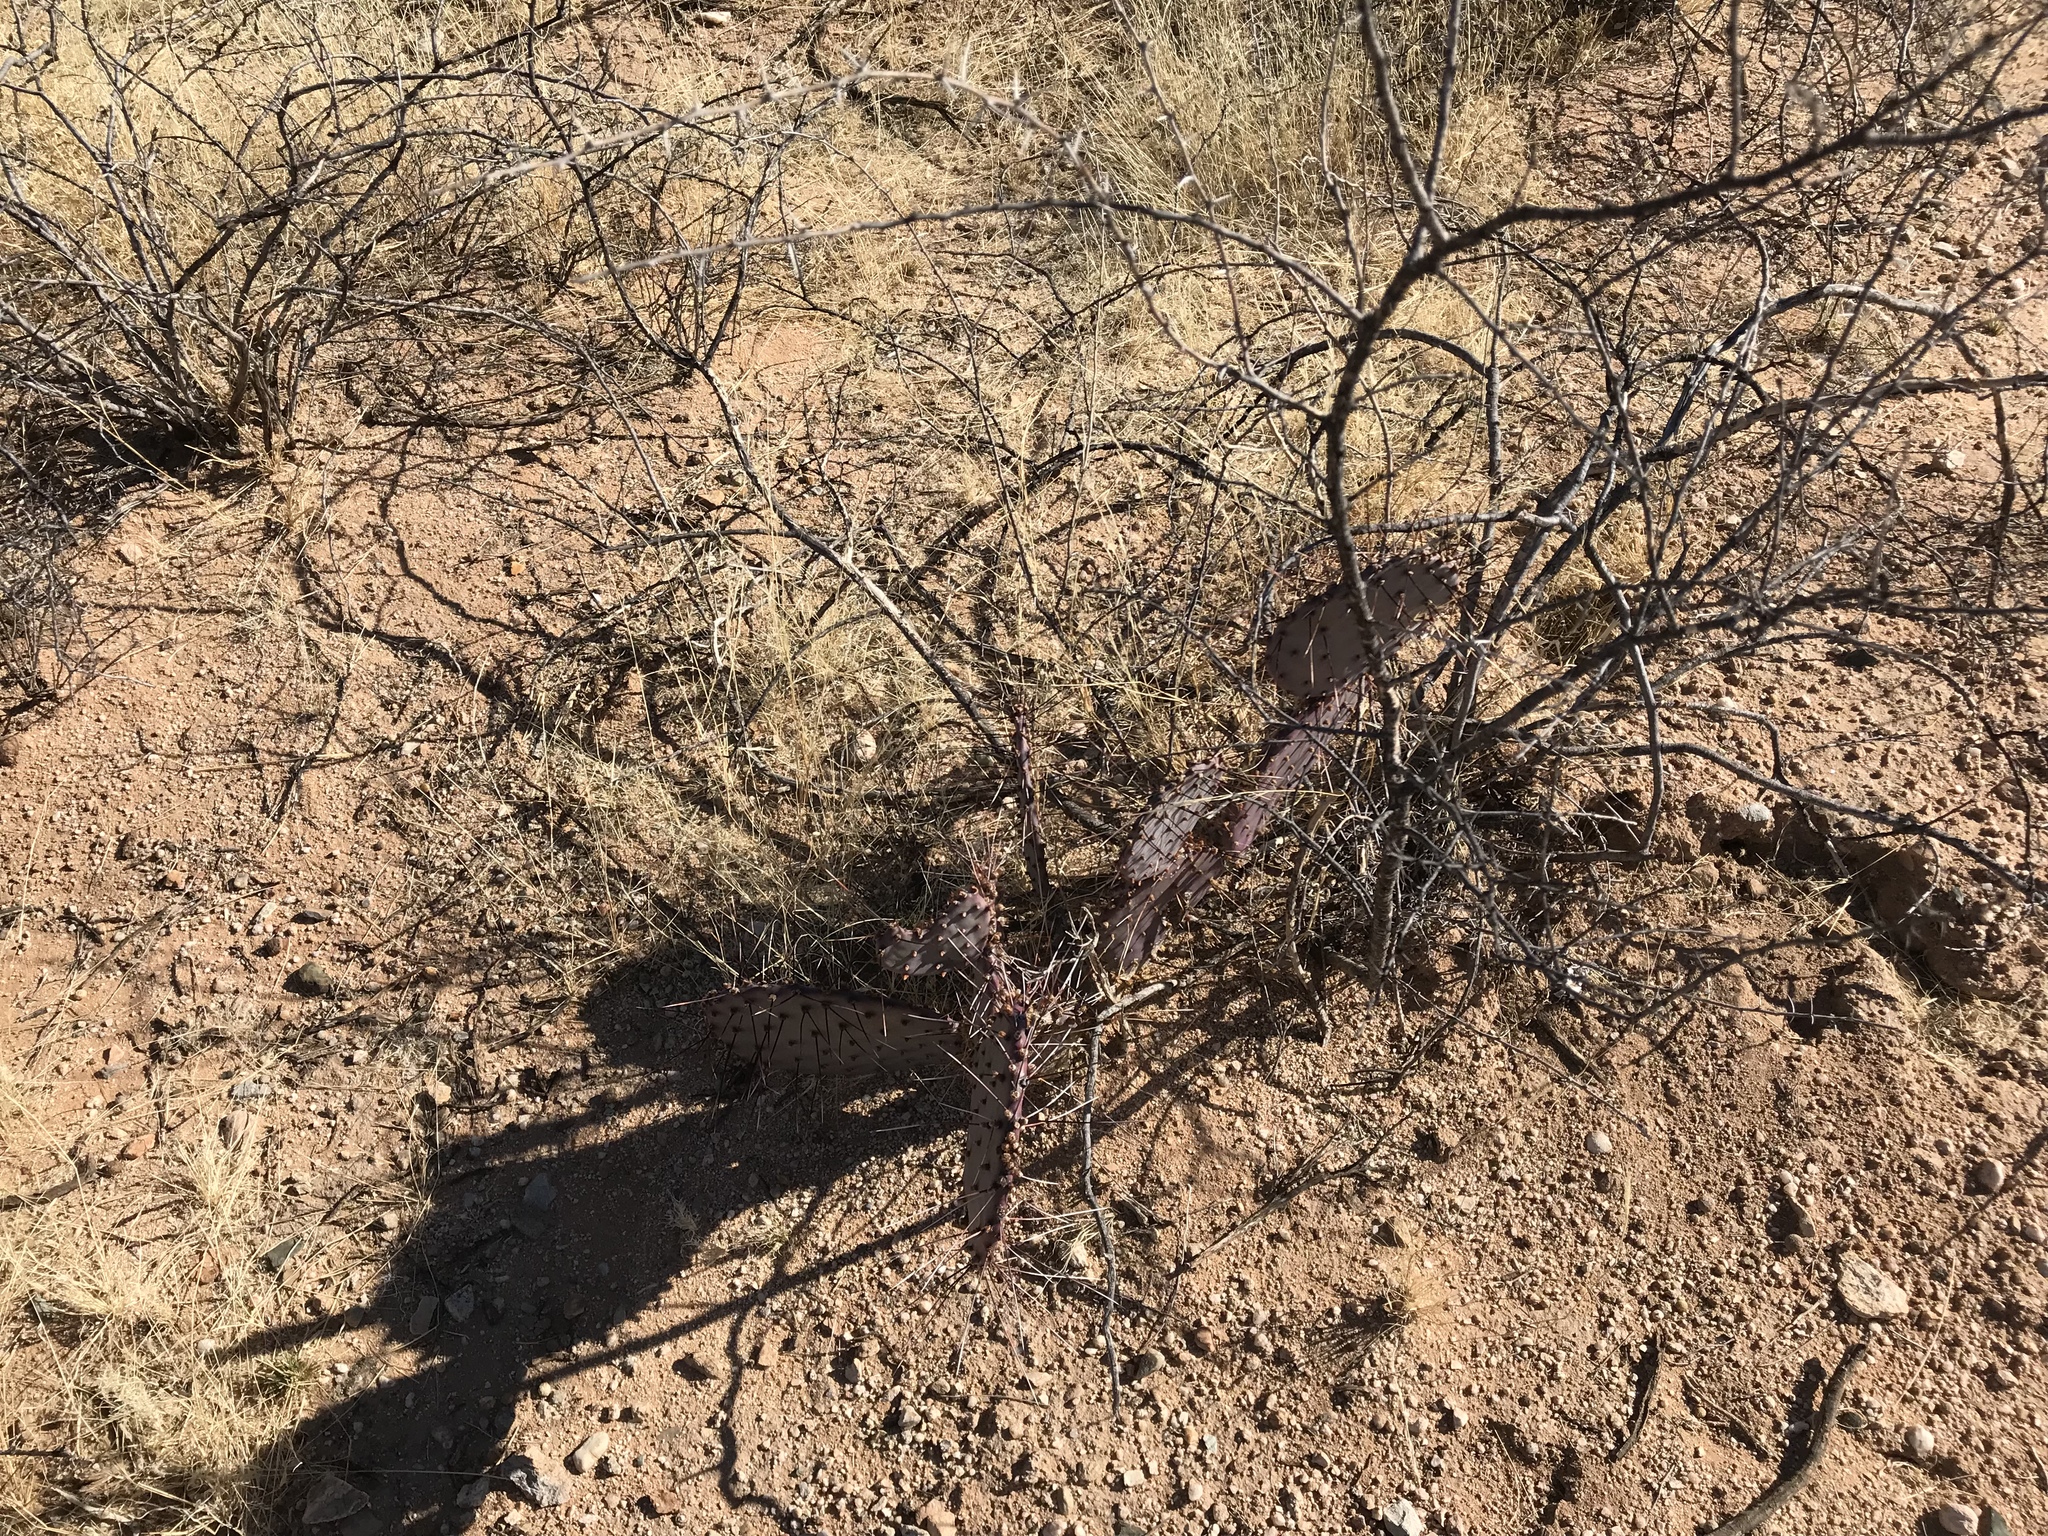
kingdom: Plantae
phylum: Tracheophyta
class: Magnoliopsida
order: Caryophyllales
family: Cactaceae
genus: Opuntia
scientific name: Opuntia macrocentra
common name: Purple prickly-pear
